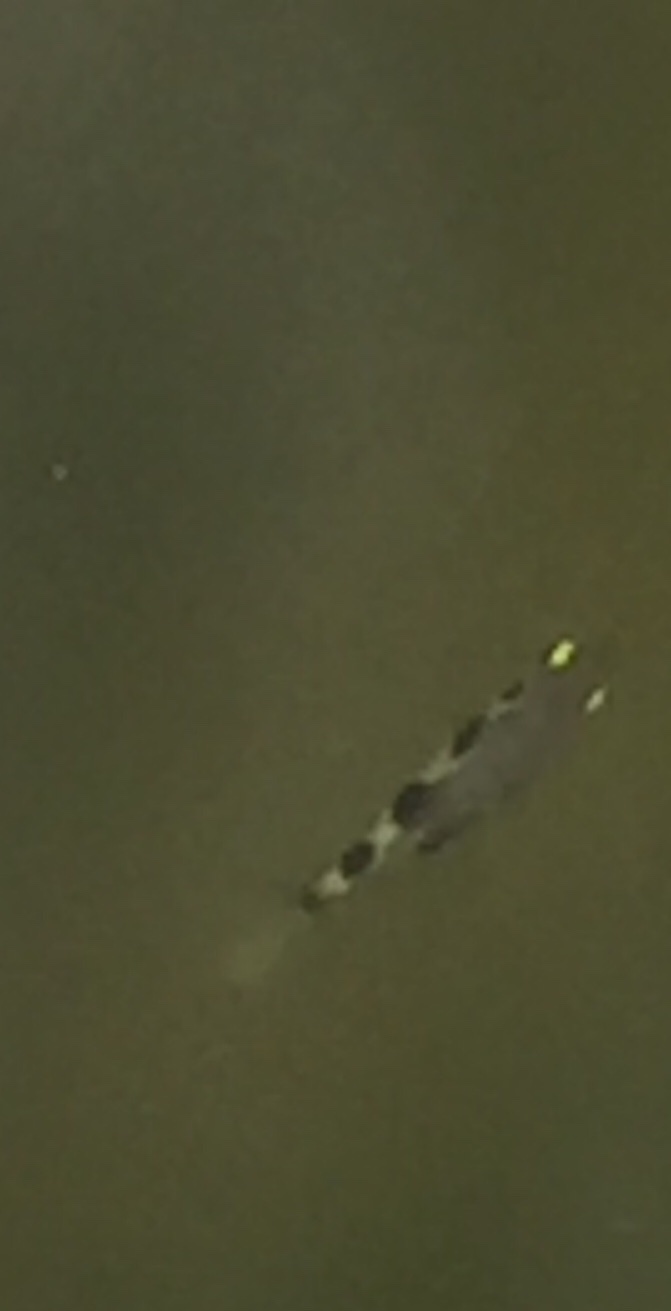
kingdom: Animalia
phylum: Chordata
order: Perciformes
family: Toxotidae
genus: Toxotes
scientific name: Toxotes chatareus
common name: Spotted archerfish
